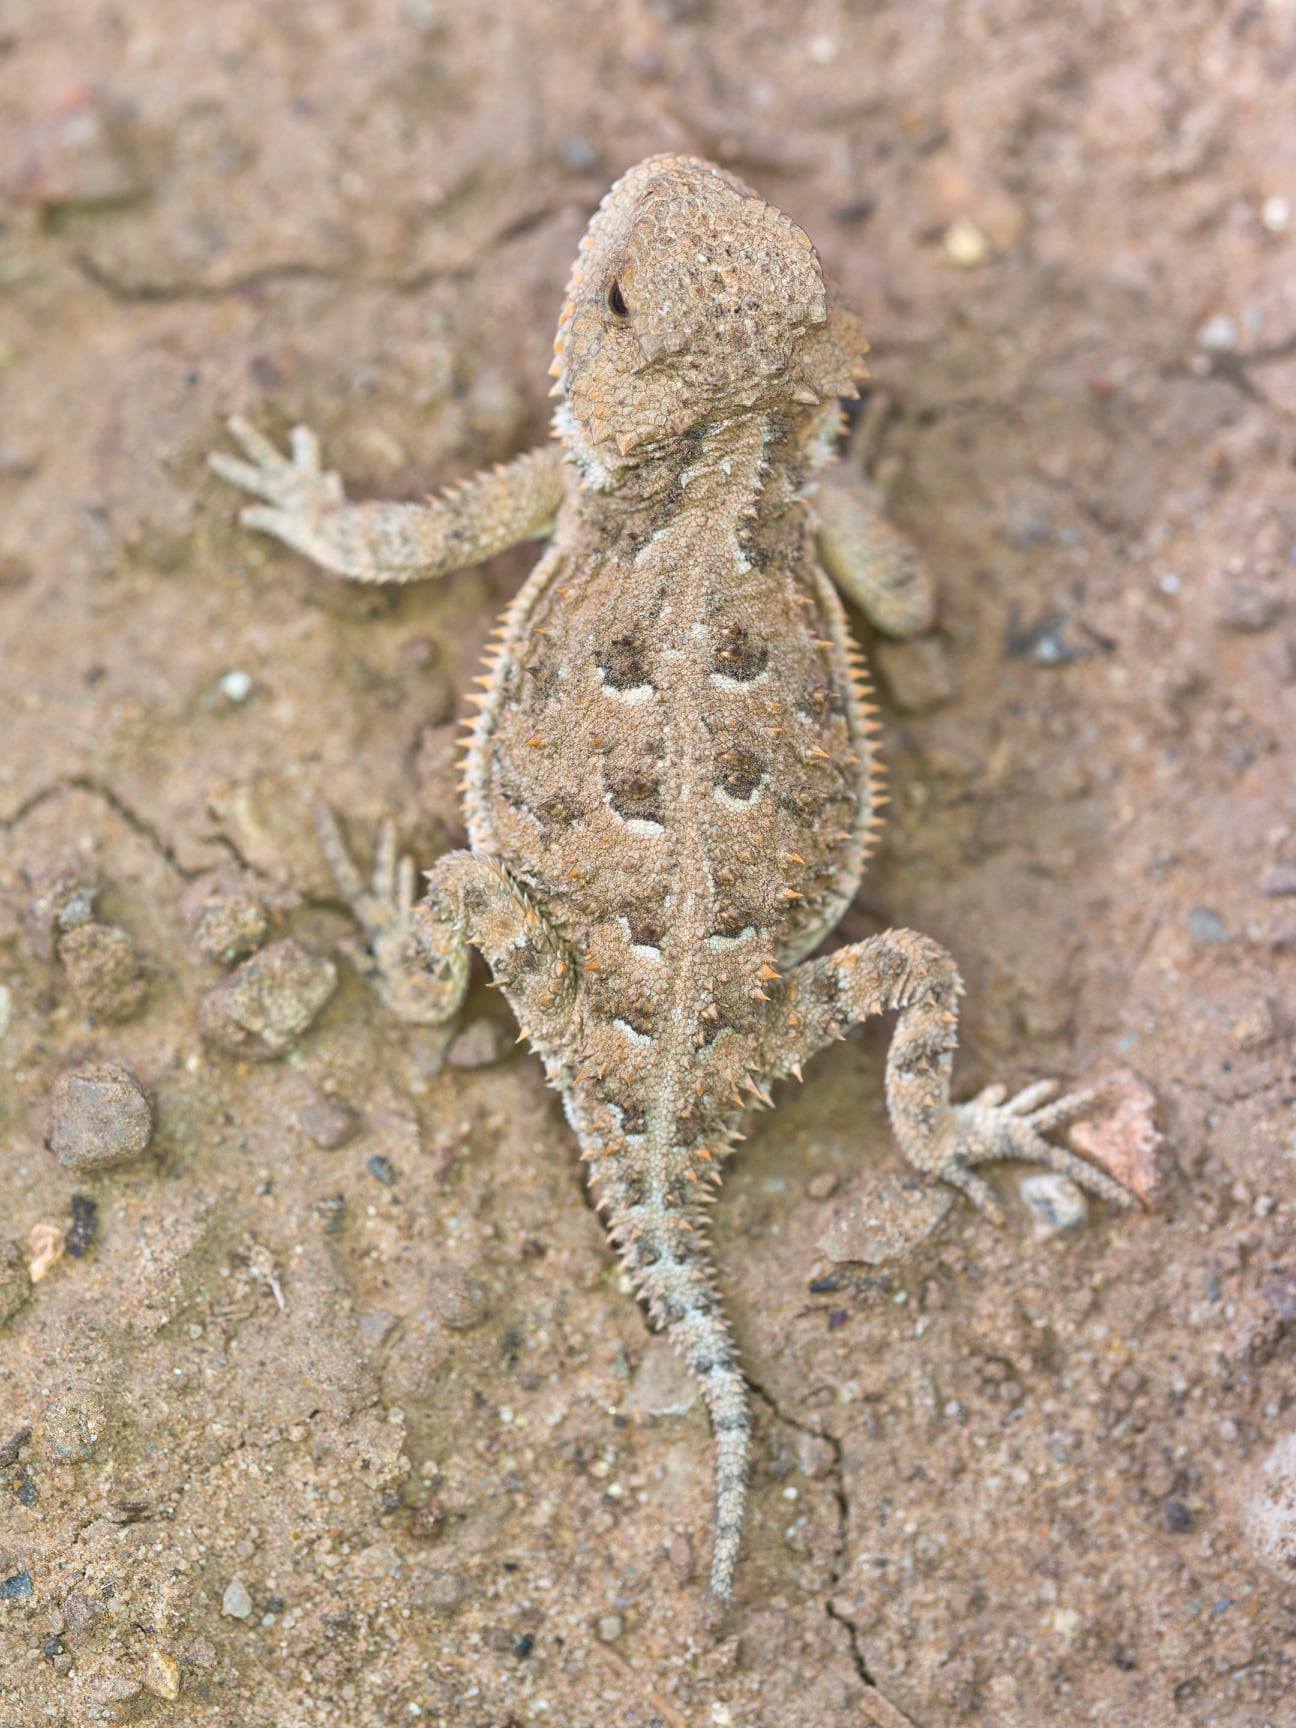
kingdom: Animalia
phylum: Chordata
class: Squamata
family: Phrynosomatidae
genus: Phrynosoma
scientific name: Phrynosoma hernandesi
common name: Greater short-horned lizard
